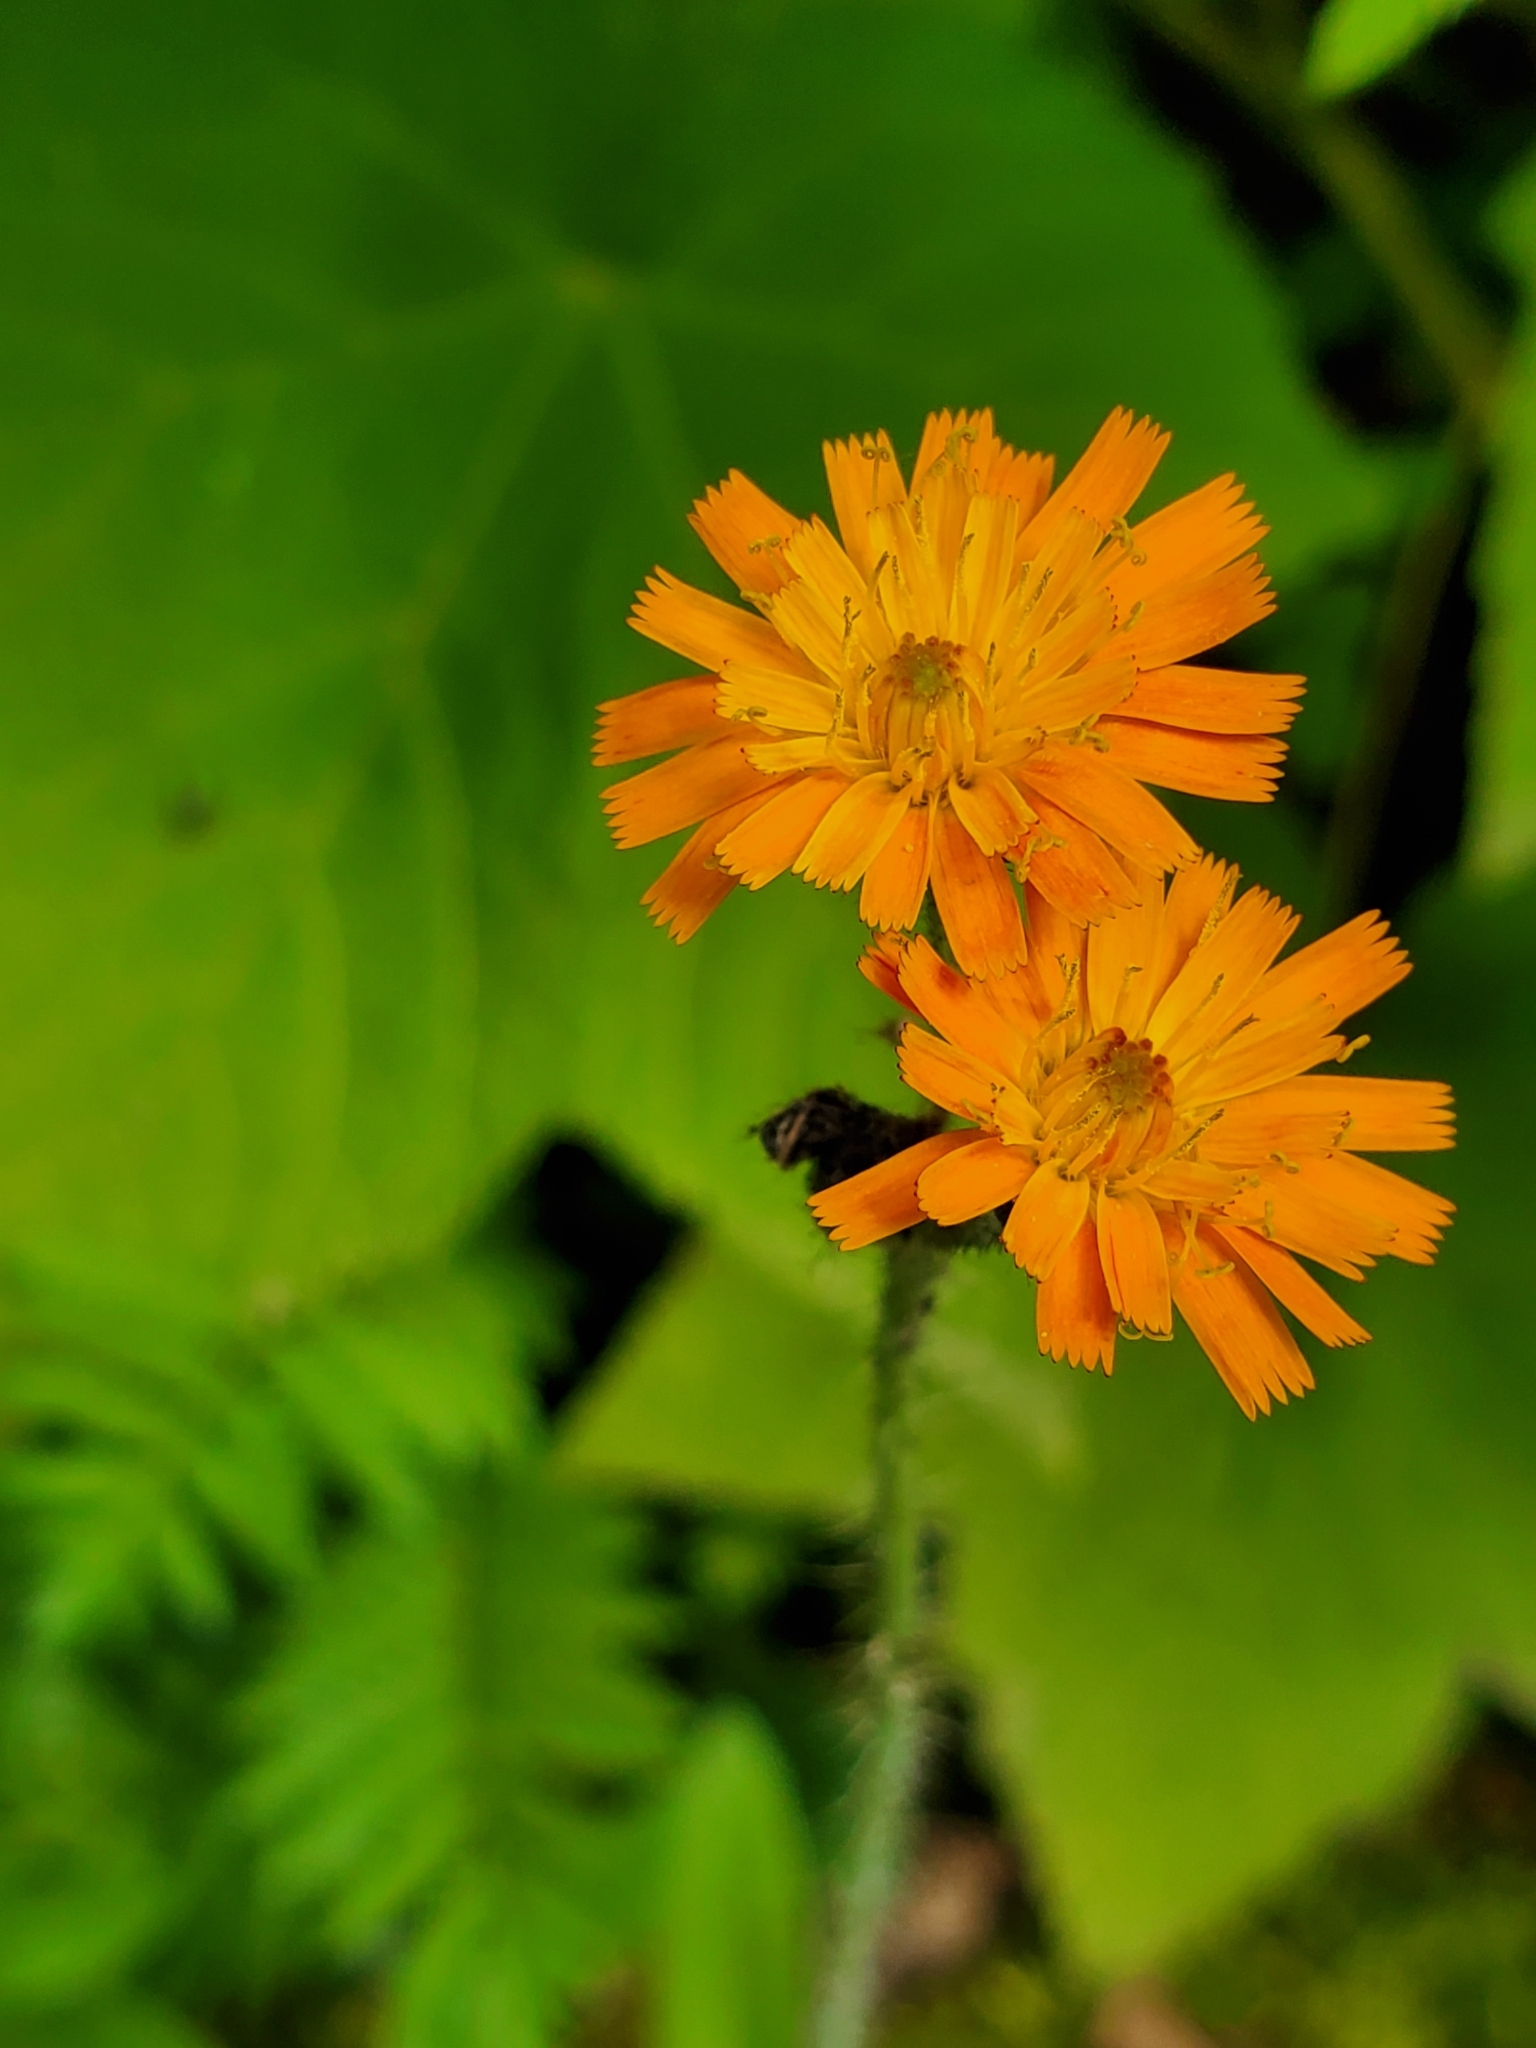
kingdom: Plantae
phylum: Tracheophyta
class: Magnoliopsida
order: Asterales
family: Asteraceae
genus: Pilosella
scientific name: Pilosella aurantiaca
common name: Fox-and-cubs
